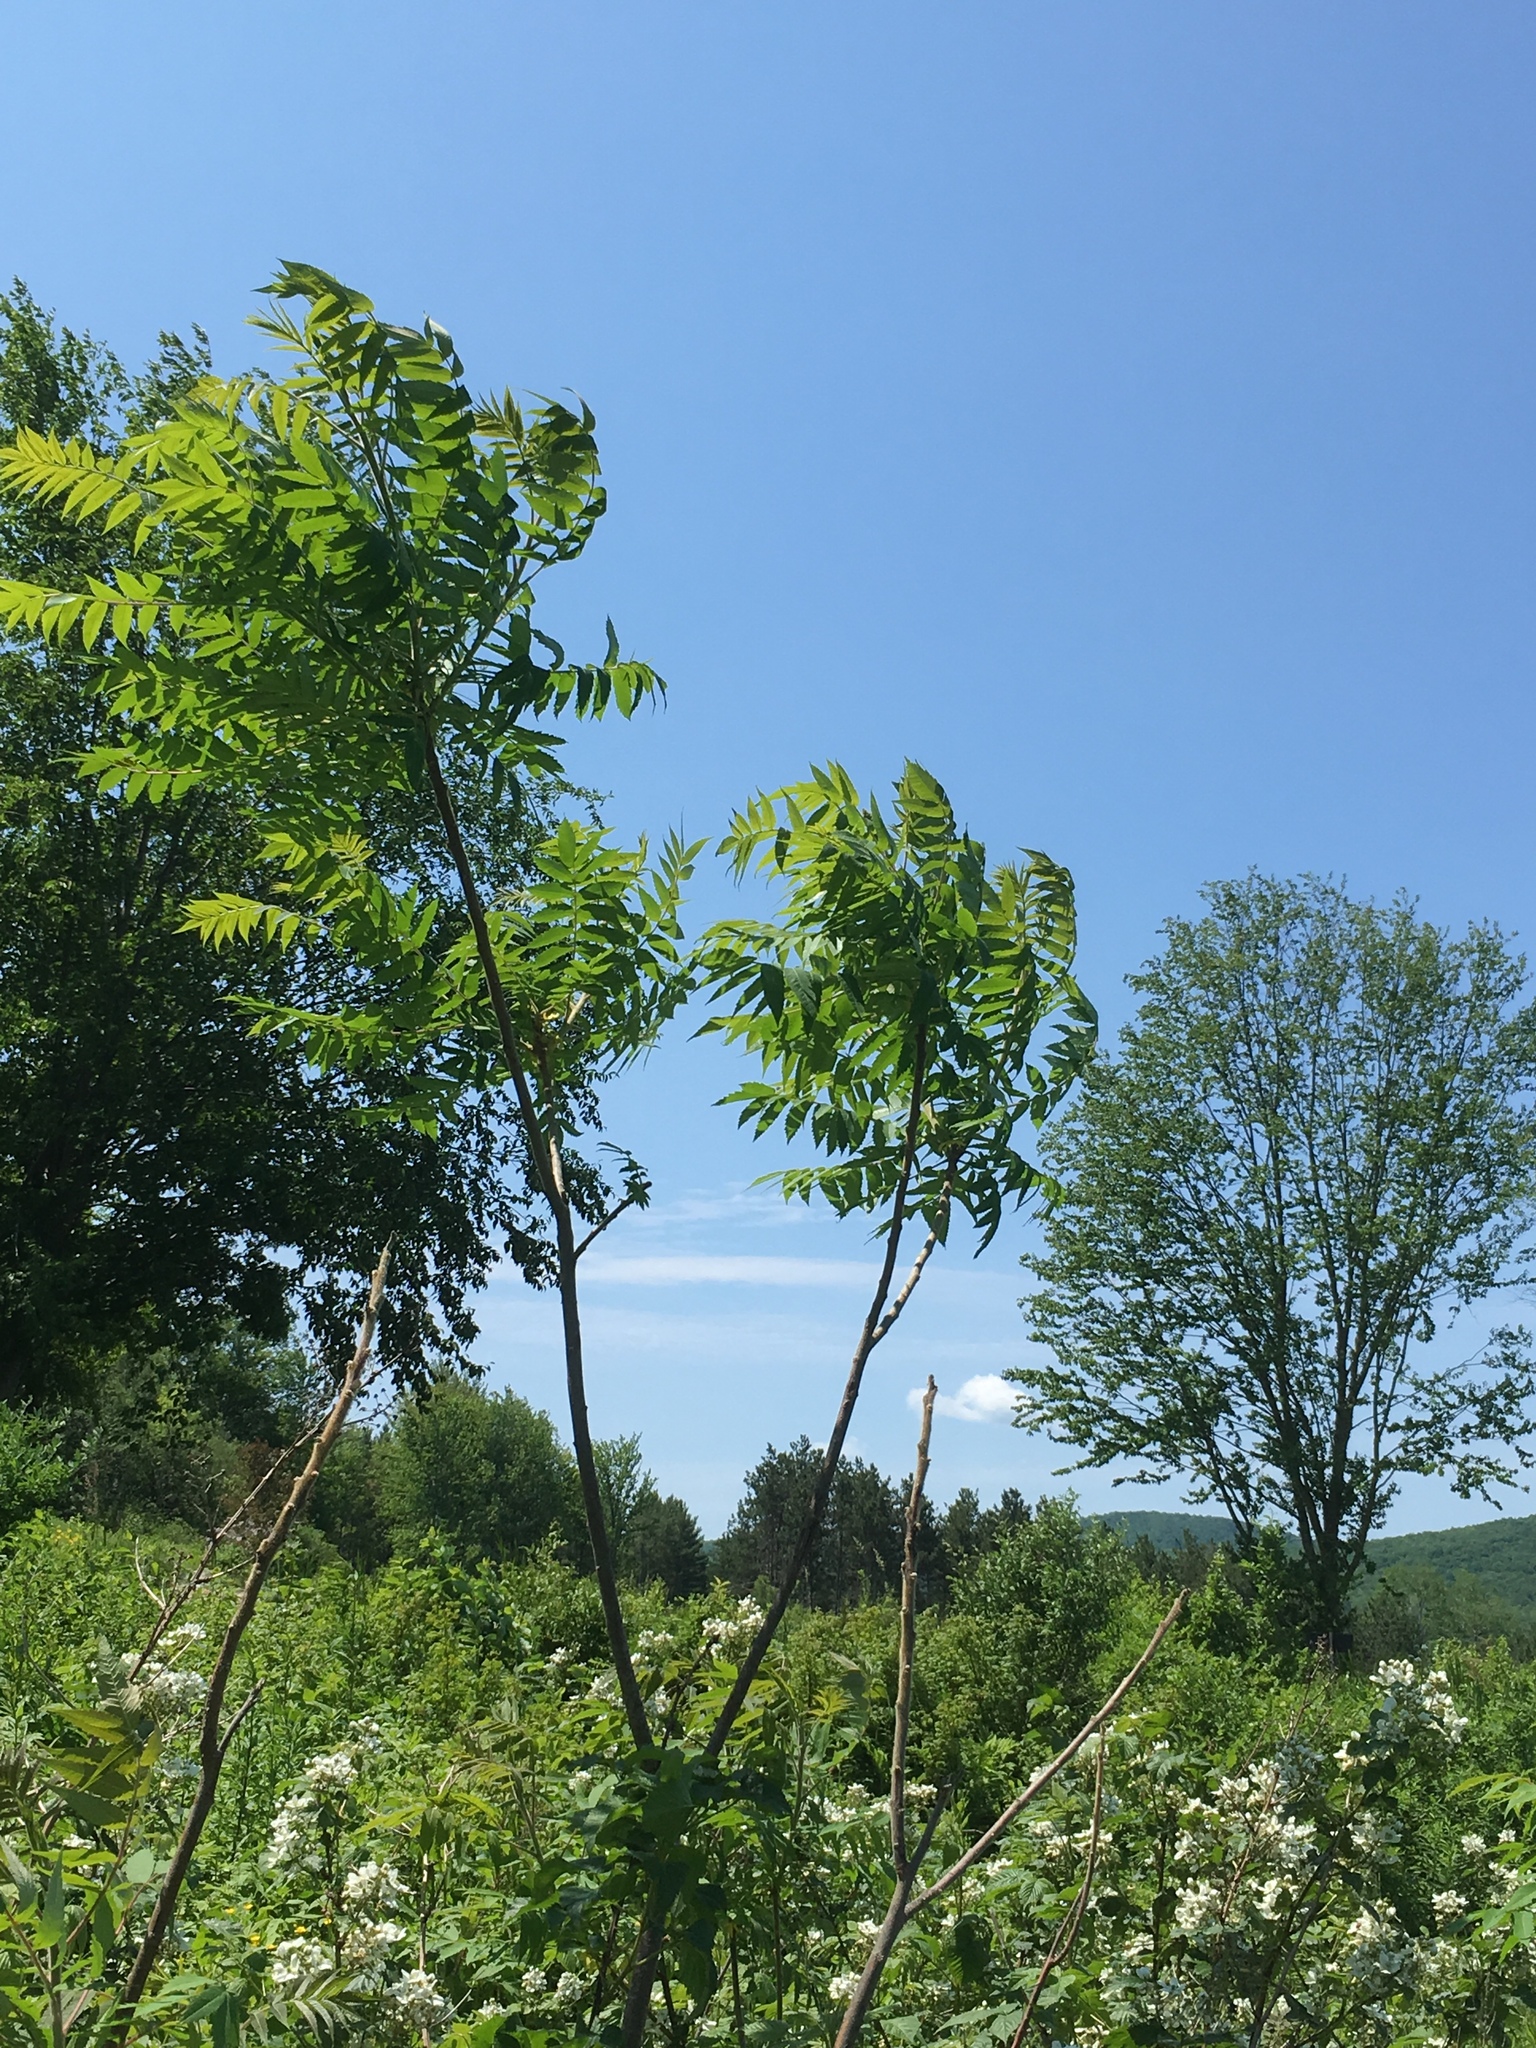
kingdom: Plantae
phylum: Tracheophyta
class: Magnoliopsida
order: Sapindales
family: Anacardiaceae
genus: Rhus
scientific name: Rhus typhina
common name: Staghorn sumac
